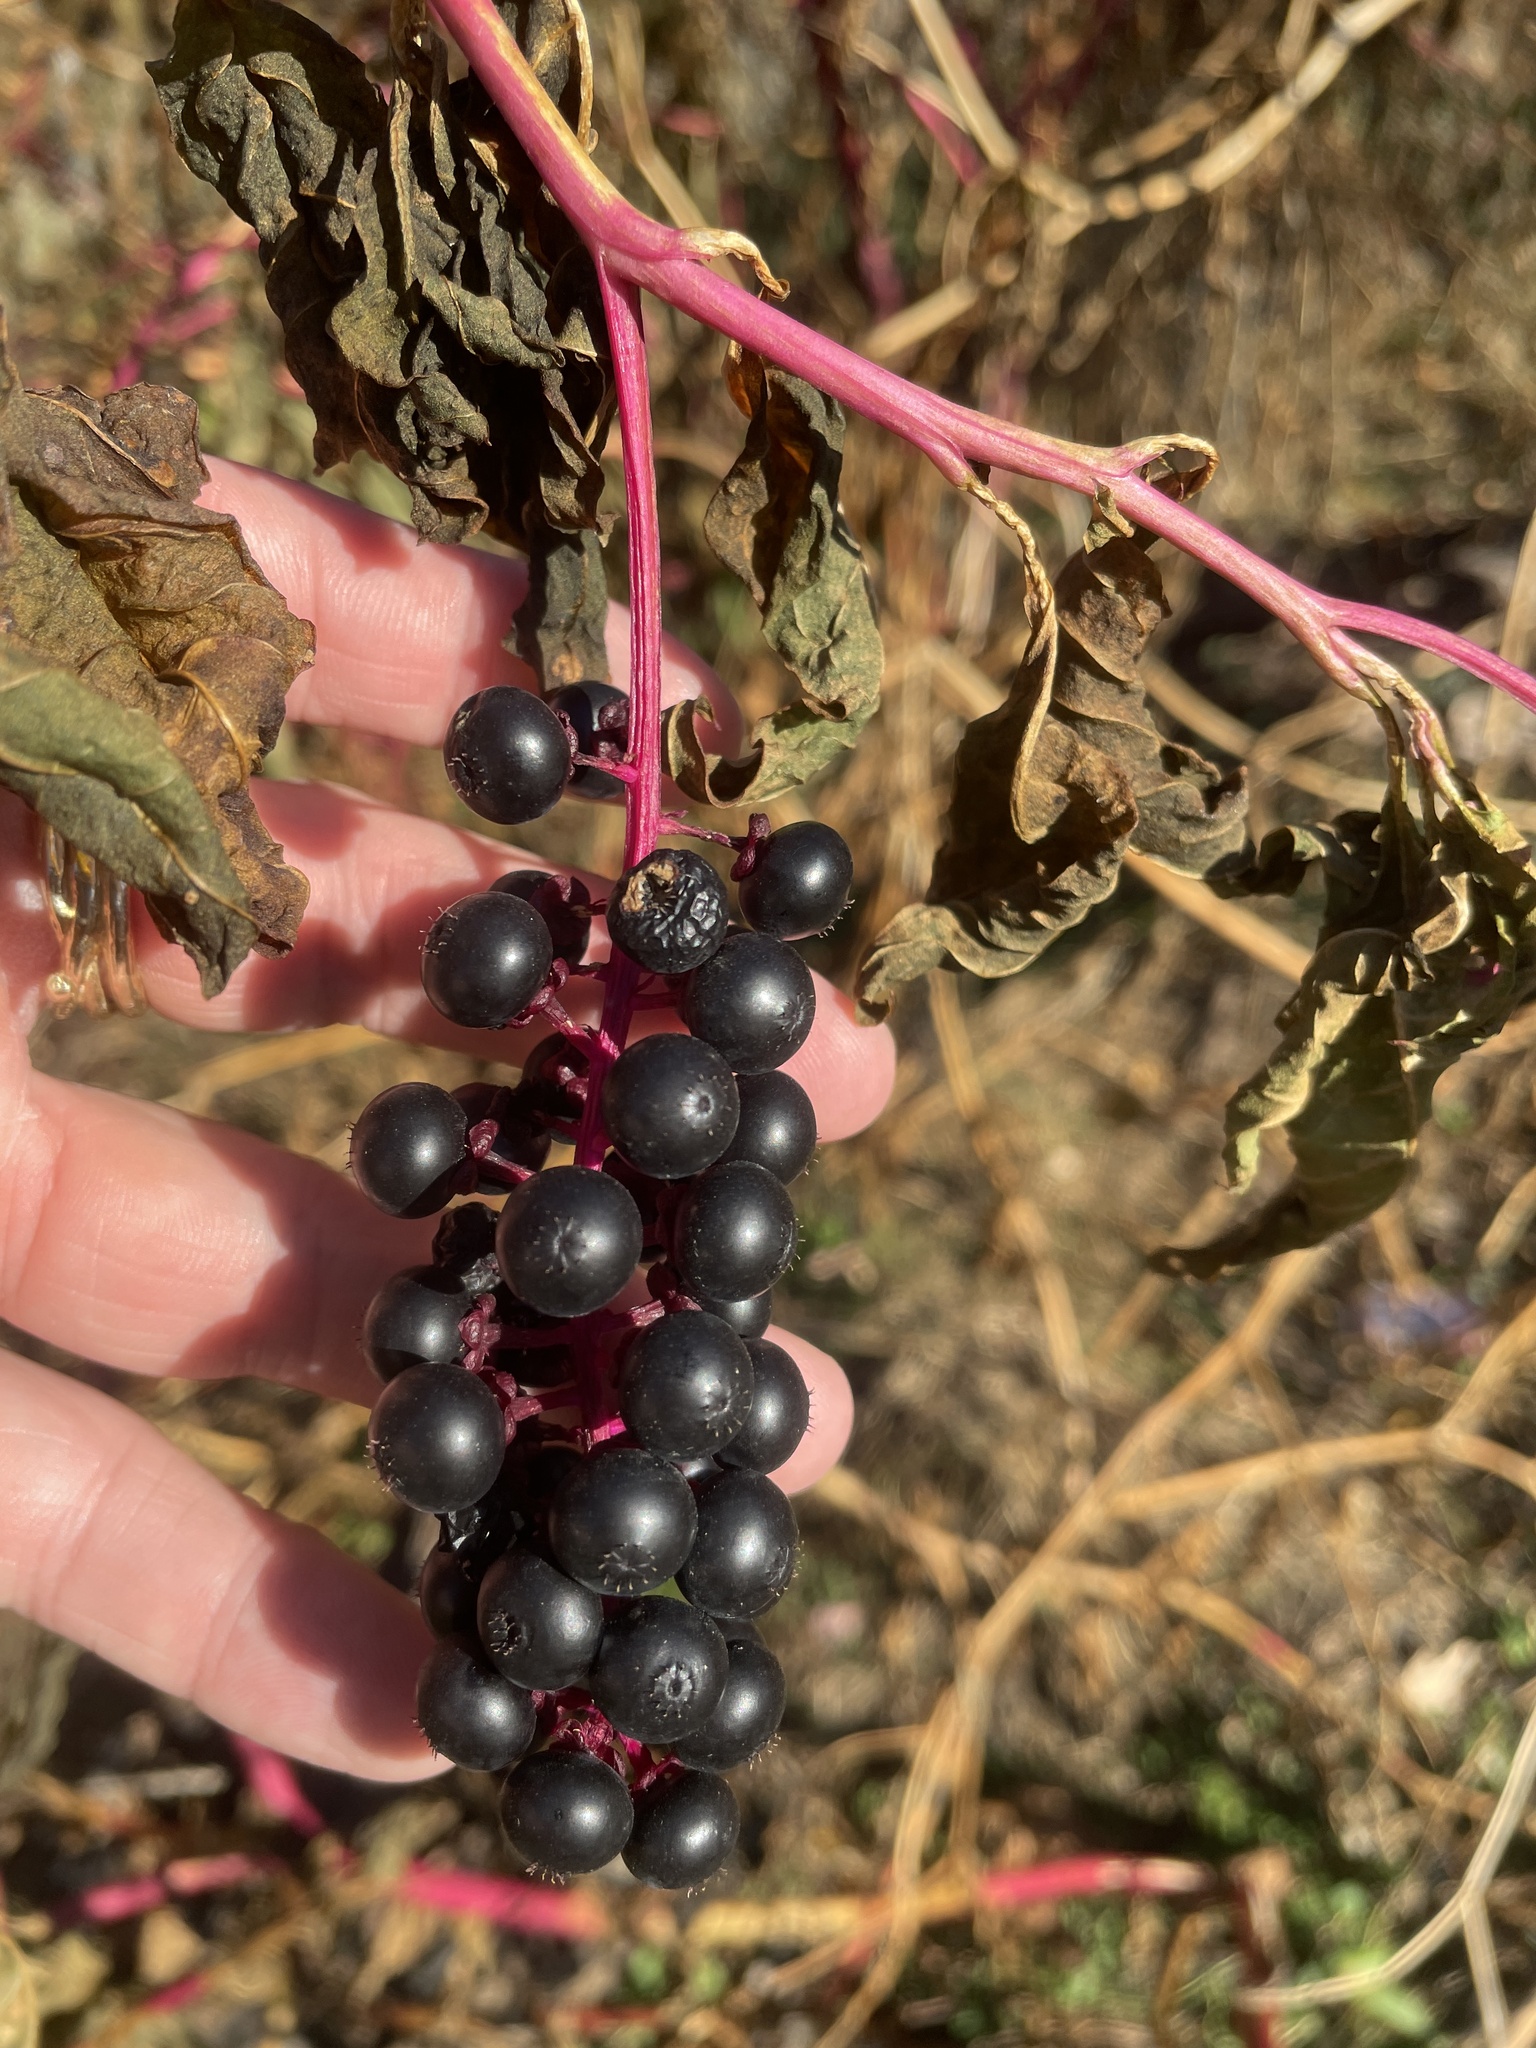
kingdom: Plantae
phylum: Tracheophyta
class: Magnoliopsida
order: Caryophyllales
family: Phytolaccaceae
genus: Phytolacca
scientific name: Phytolacca americana
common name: American pokeweed
